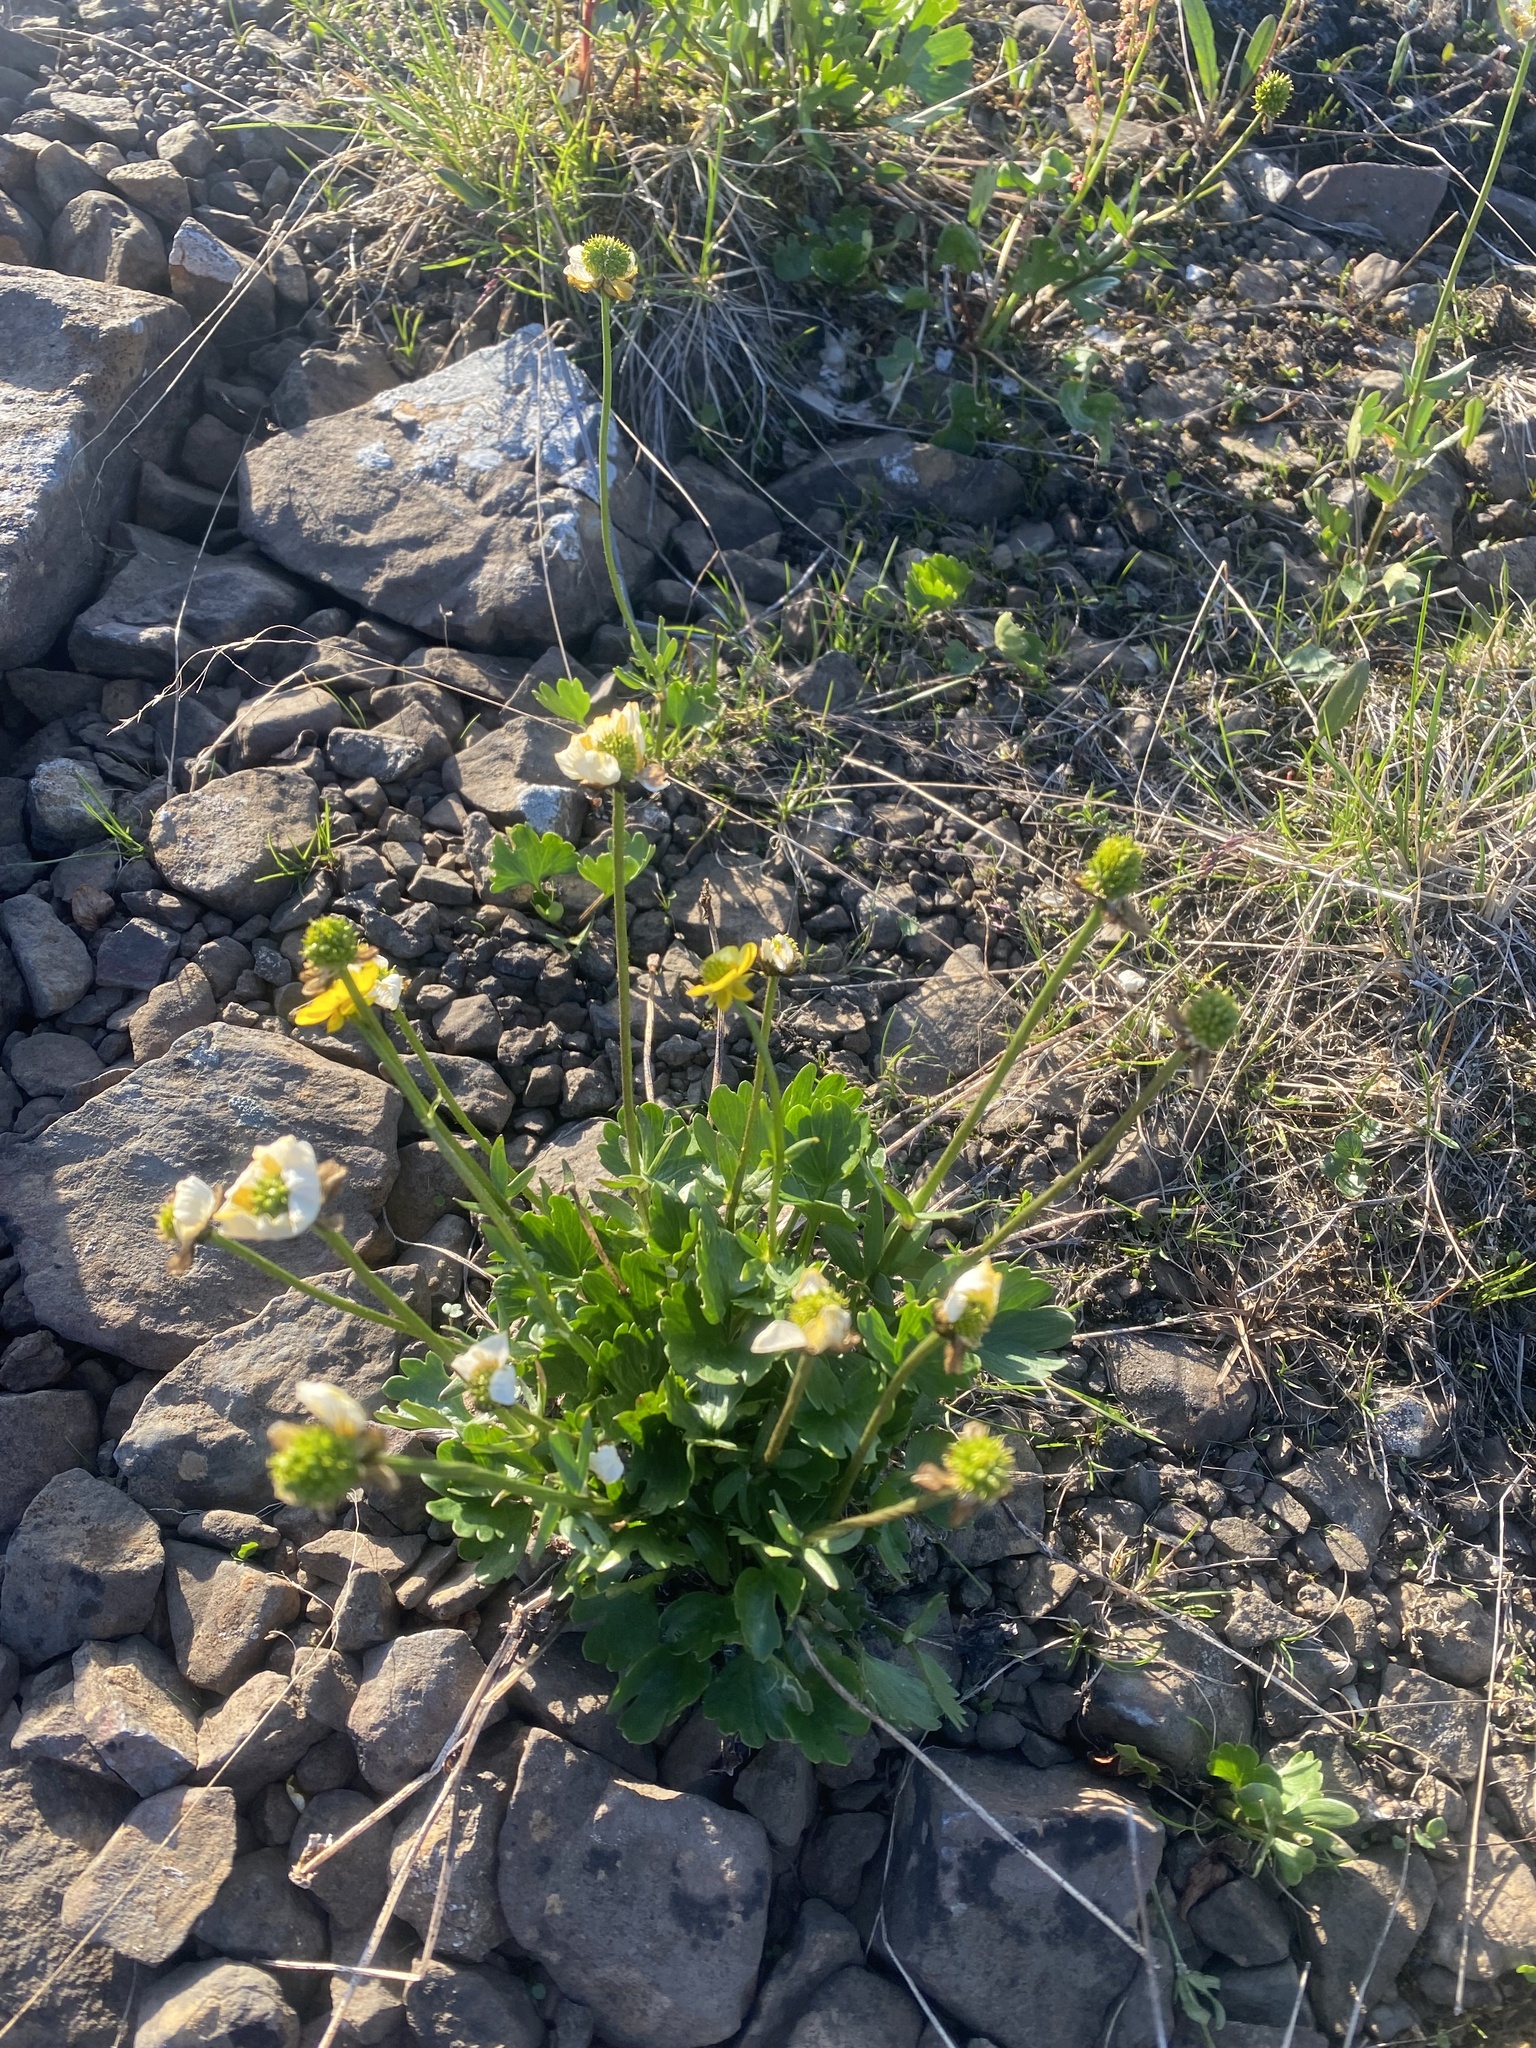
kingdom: Plantae
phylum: Tracheophyta
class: Magnoliopsida
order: Ranunculales
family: Ranunculaceae
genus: Ranunculus
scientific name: Ranunculus sulphureus
